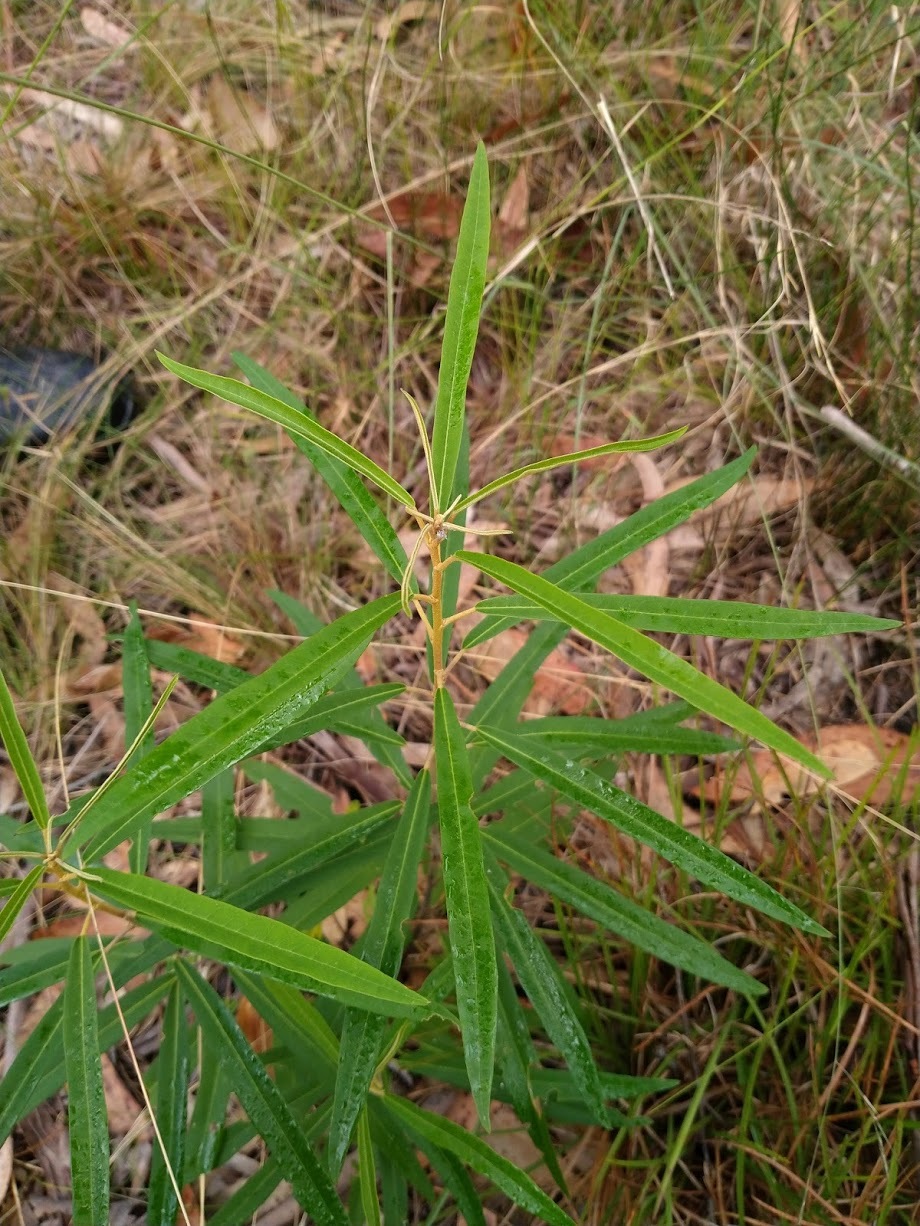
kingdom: Plantae
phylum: Tracheophyta
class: Magnoliopsida
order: Apiales
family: Araliaceae
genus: Astrotricha
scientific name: Astrotricha longifolia
